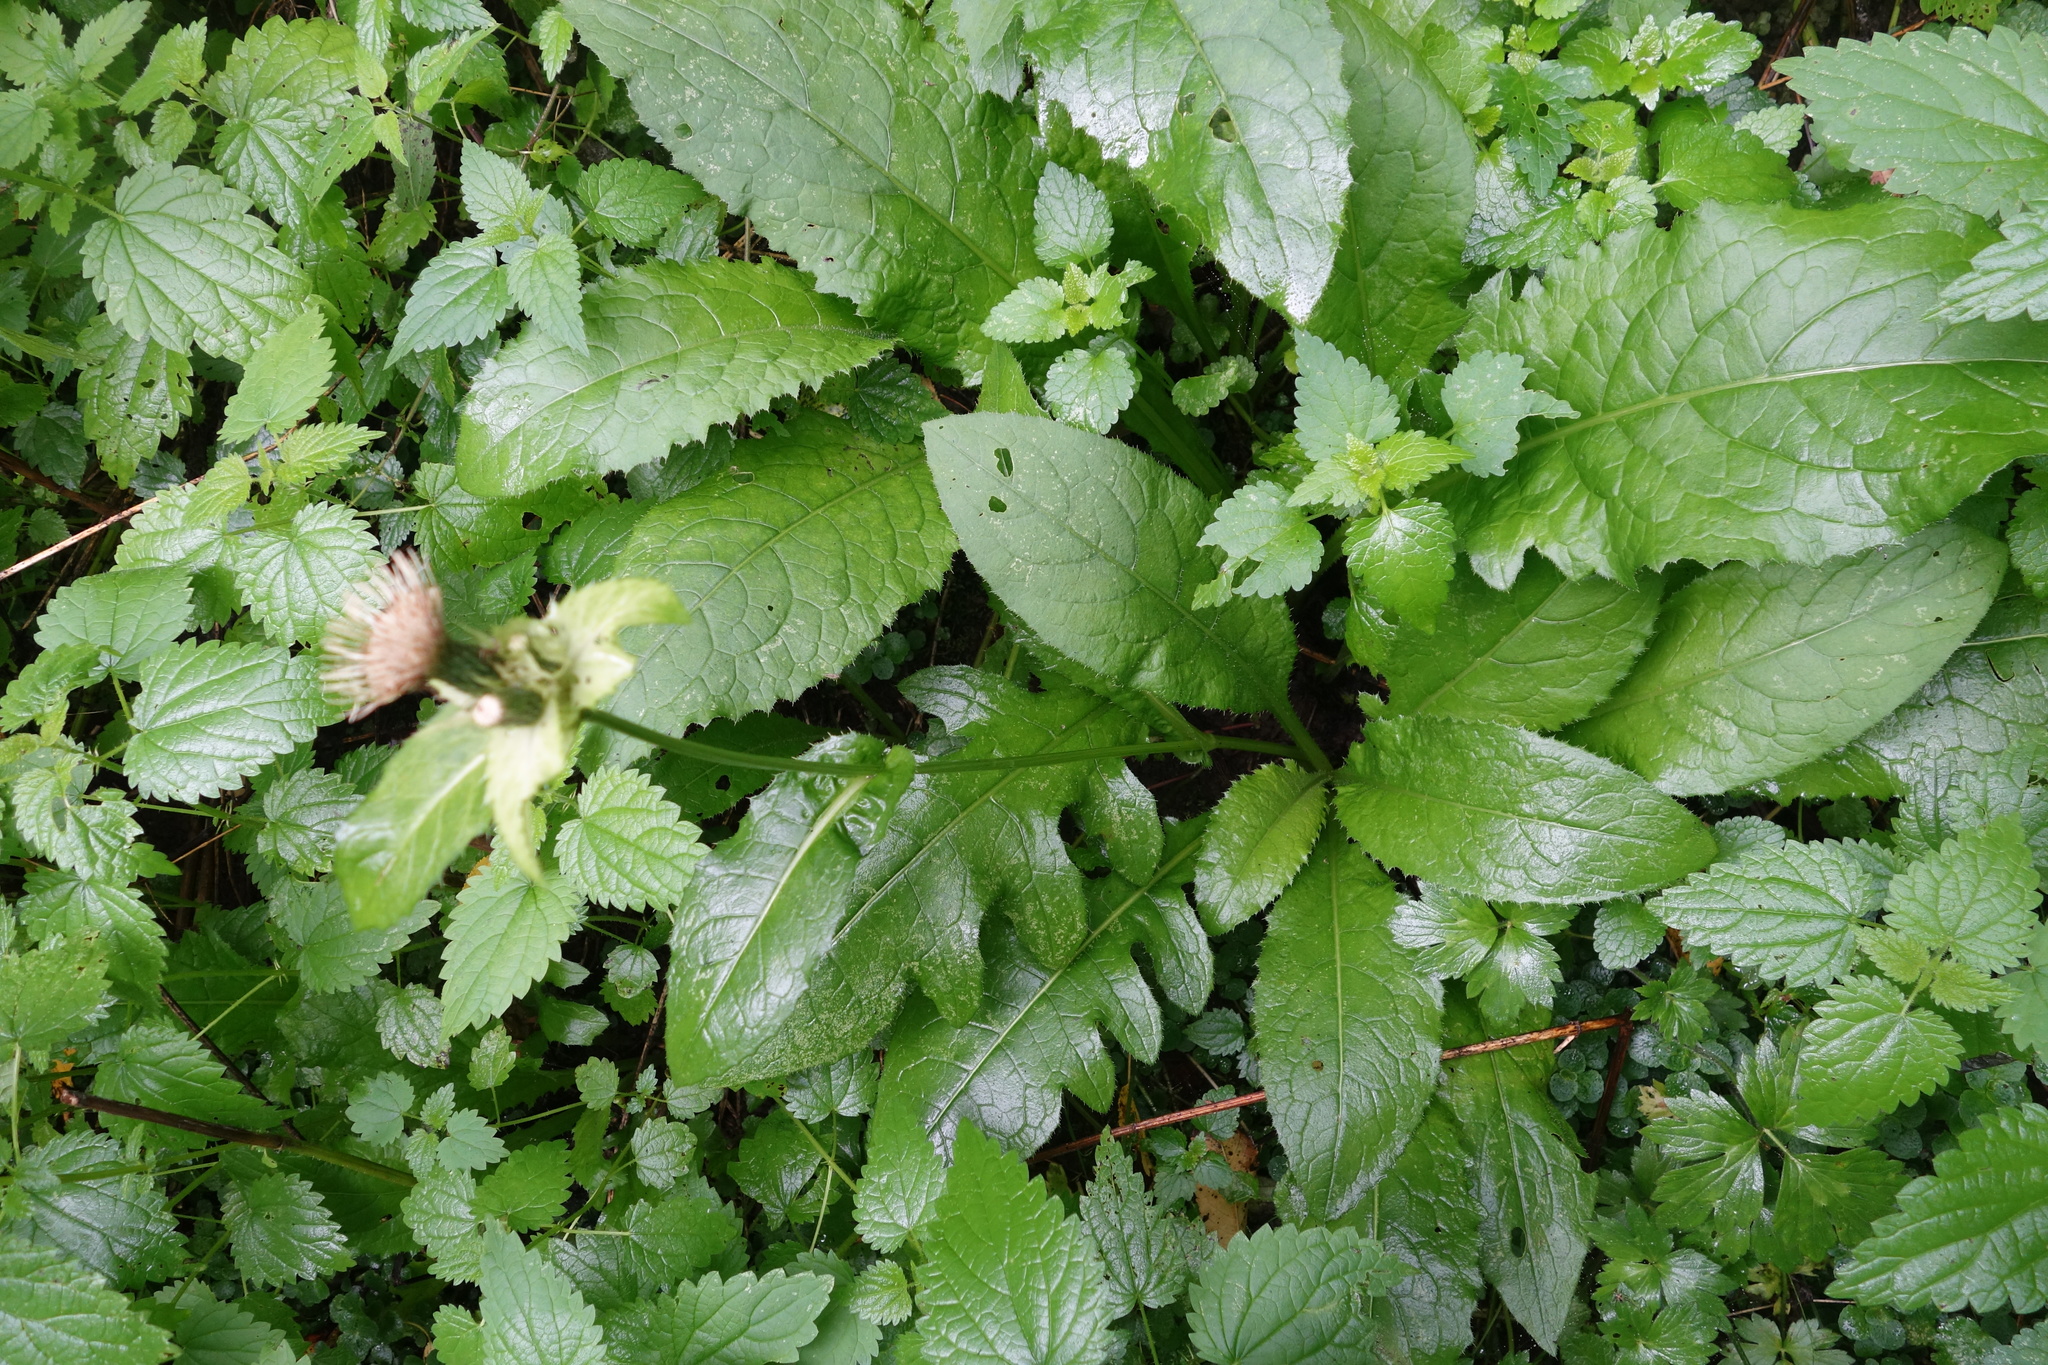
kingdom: Plantae
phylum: Tracheophyta
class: Magnoliopsida
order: Asterales
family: Asteraceae
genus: Cirsium
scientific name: Cirsium oleraceum
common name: Cabbage thistle
